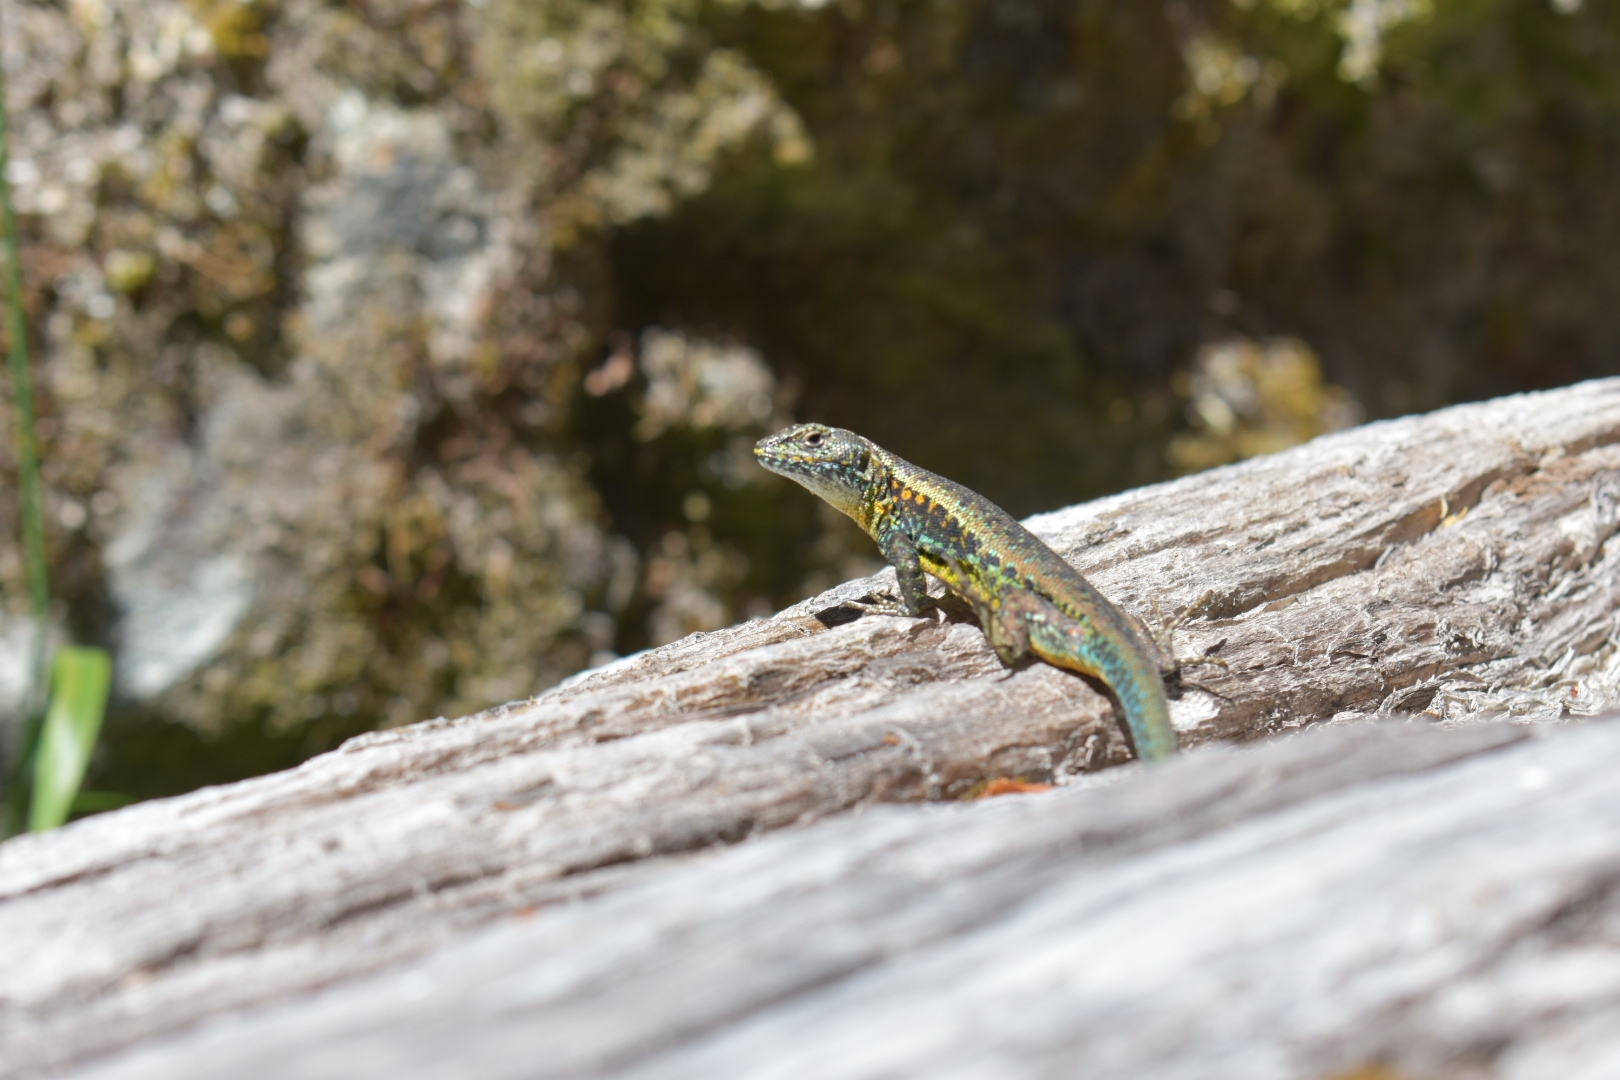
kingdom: Animalia
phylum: Chordata
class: Squamata
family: Liolaemidae
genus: Liolaemus
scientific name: Liolaemus pictus
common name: Painted tree iguana
